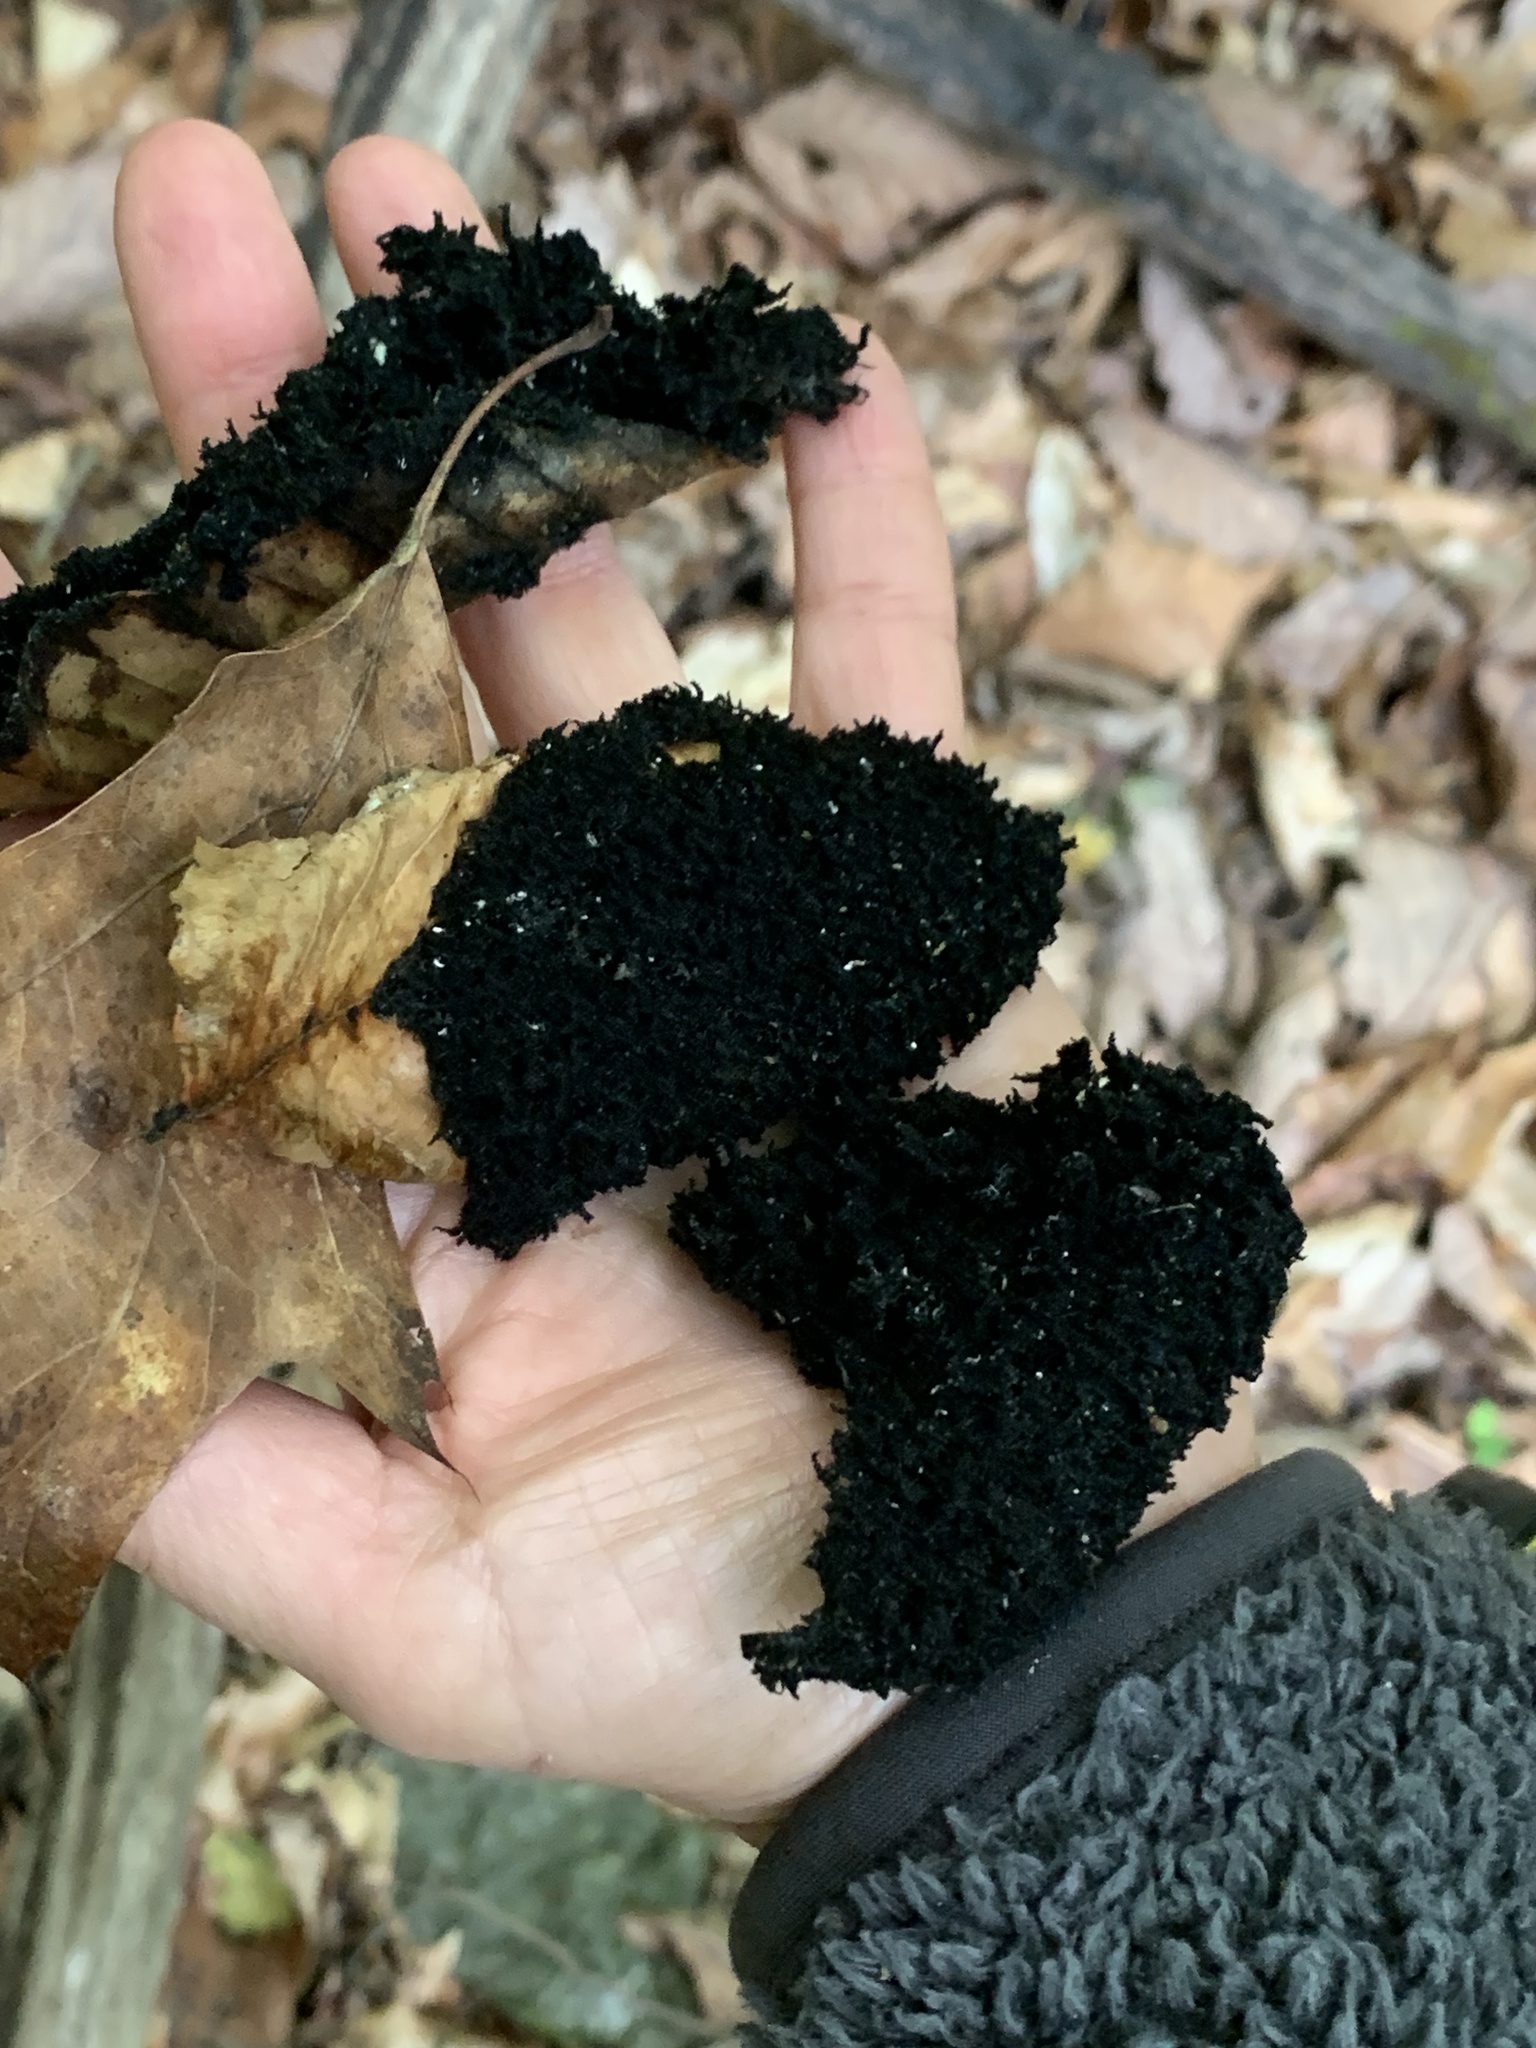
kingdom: Animalia
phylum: Arthropoda
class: Insecta
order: Hemiptera
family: Aphididae
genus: Grylloprociphilus
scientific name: Grylloprociphilus imbricator
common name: Beech blight aphid
